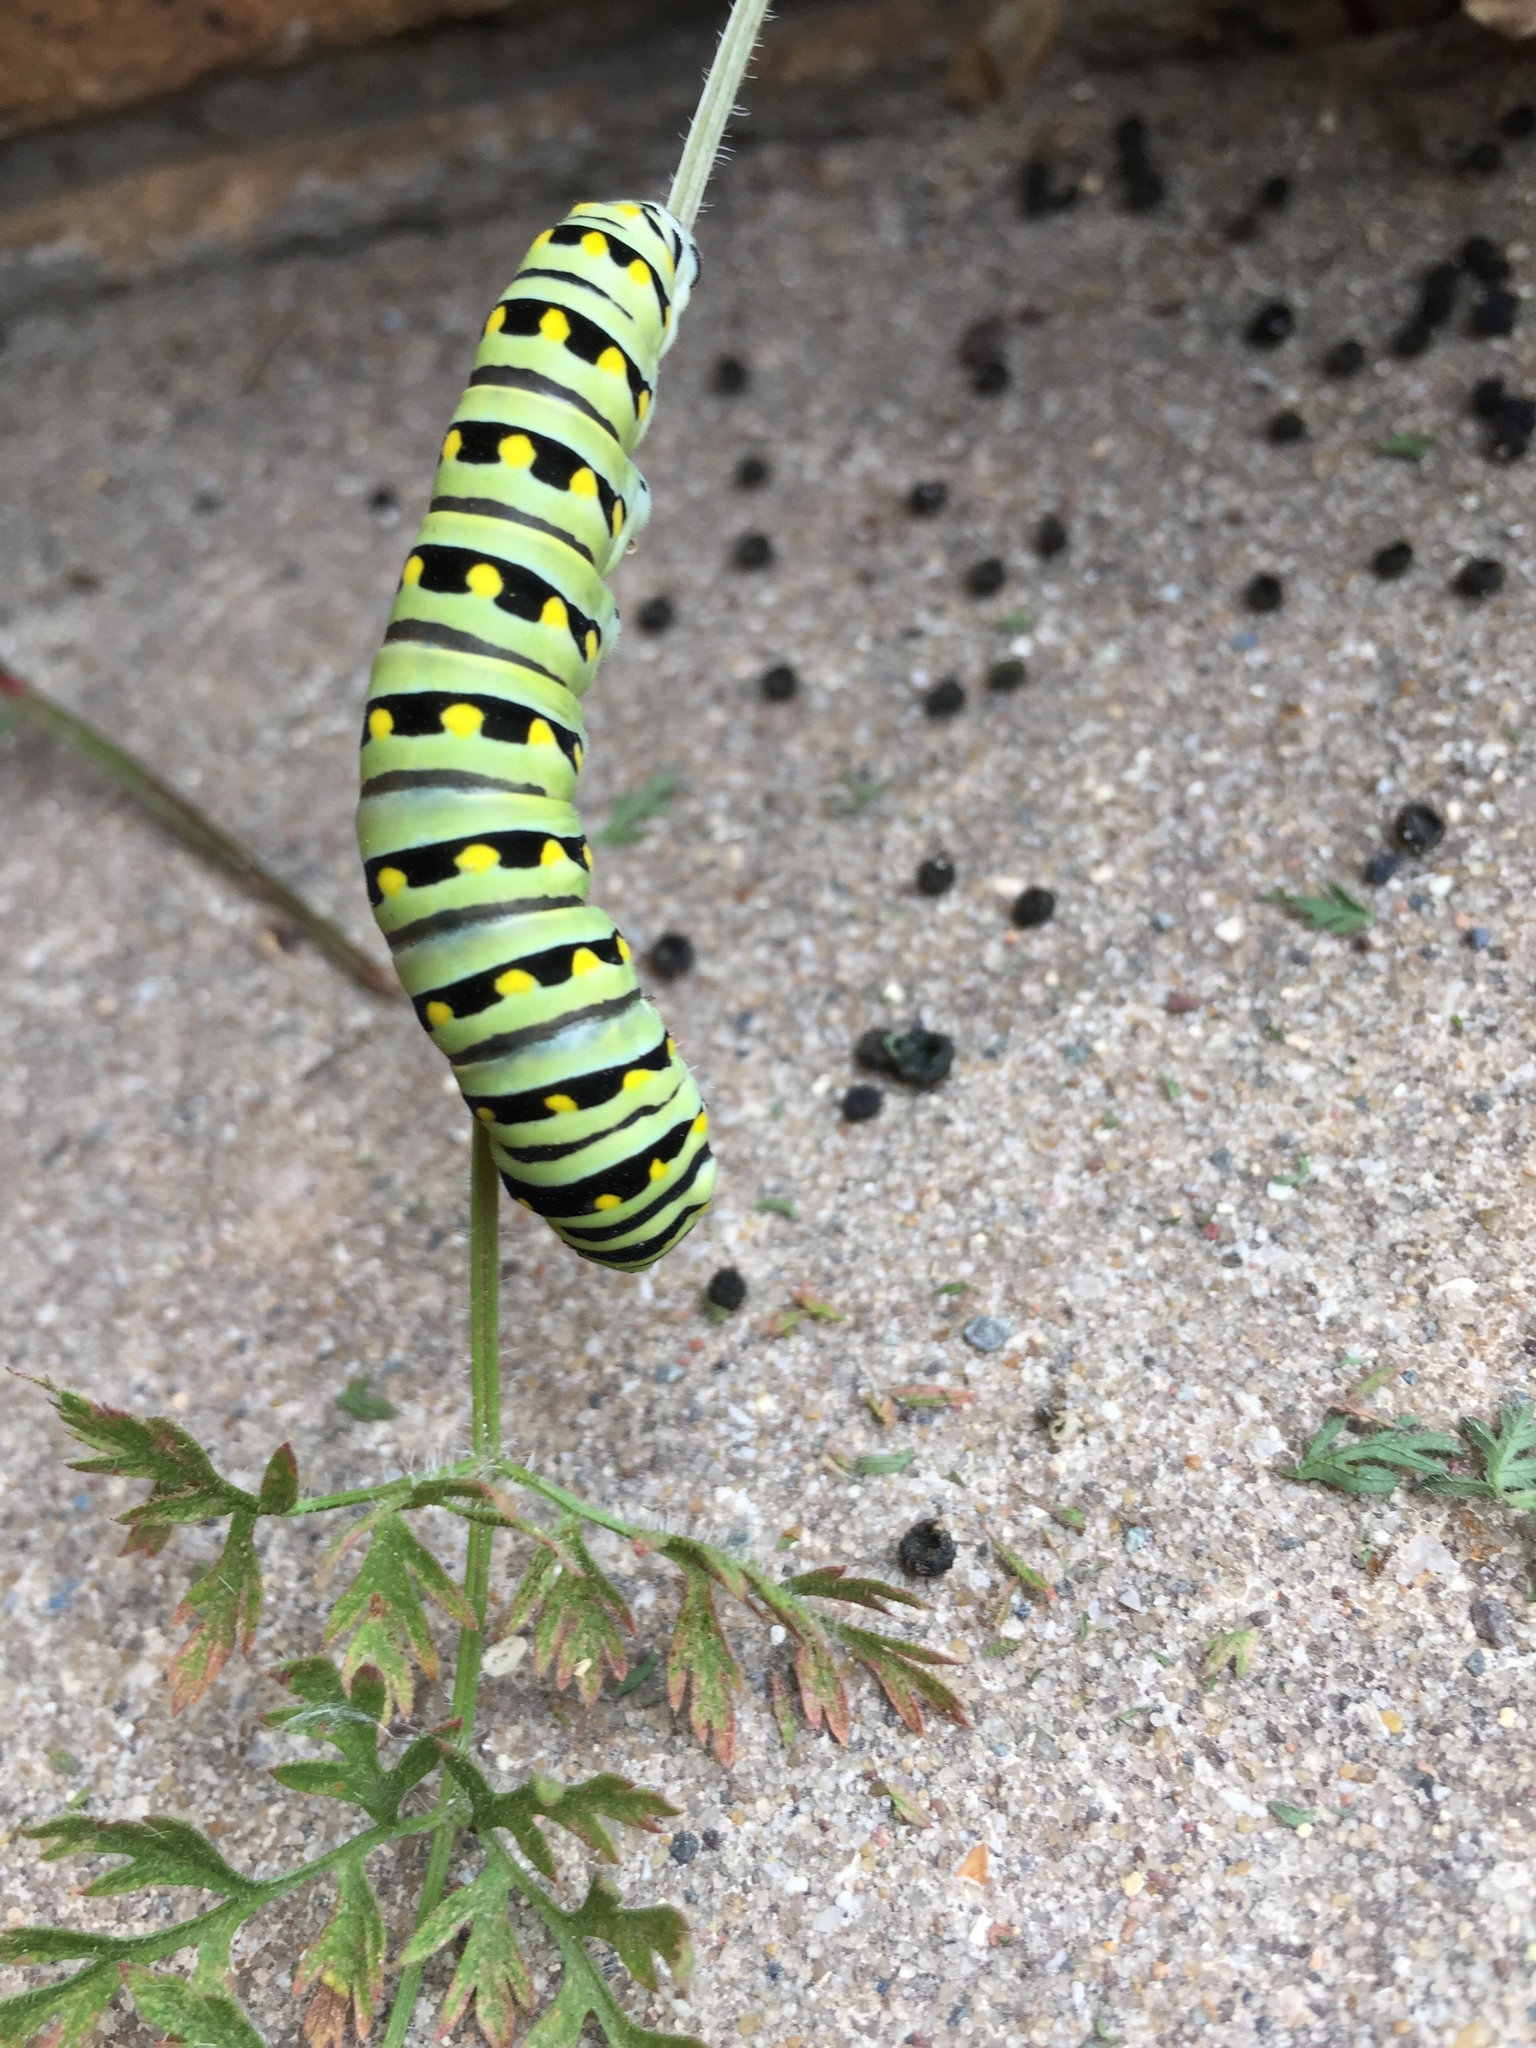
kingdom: Animalia
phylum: Arthropoda
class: Insecta
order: Lepidoptera
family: Papilionidae
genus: Papilio
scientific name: Papilio polyxenes
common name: Black swallowtail
